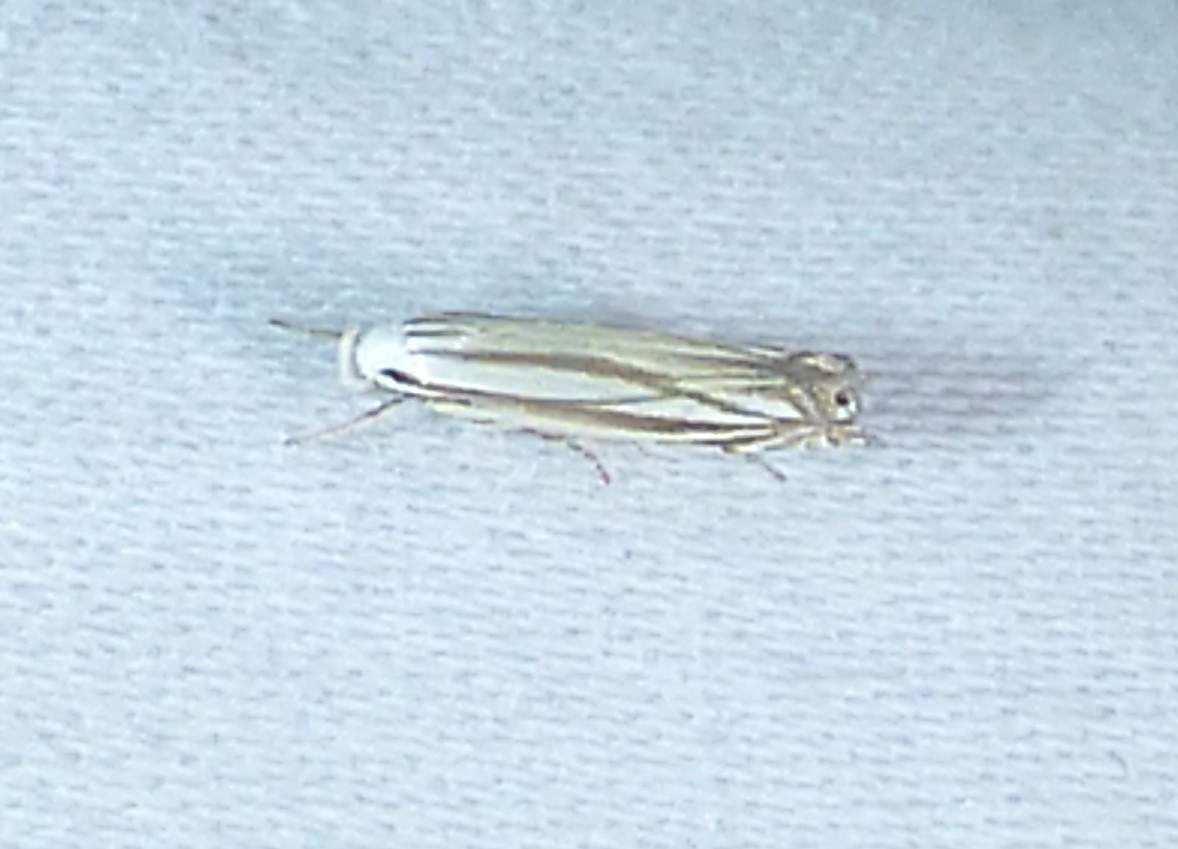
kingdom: Animalia
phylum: Arthropoda
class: Insecta
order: Lepidoptera
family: Gelechiidae
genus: Polyhymno
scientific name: Polyhymno luteostrigella
